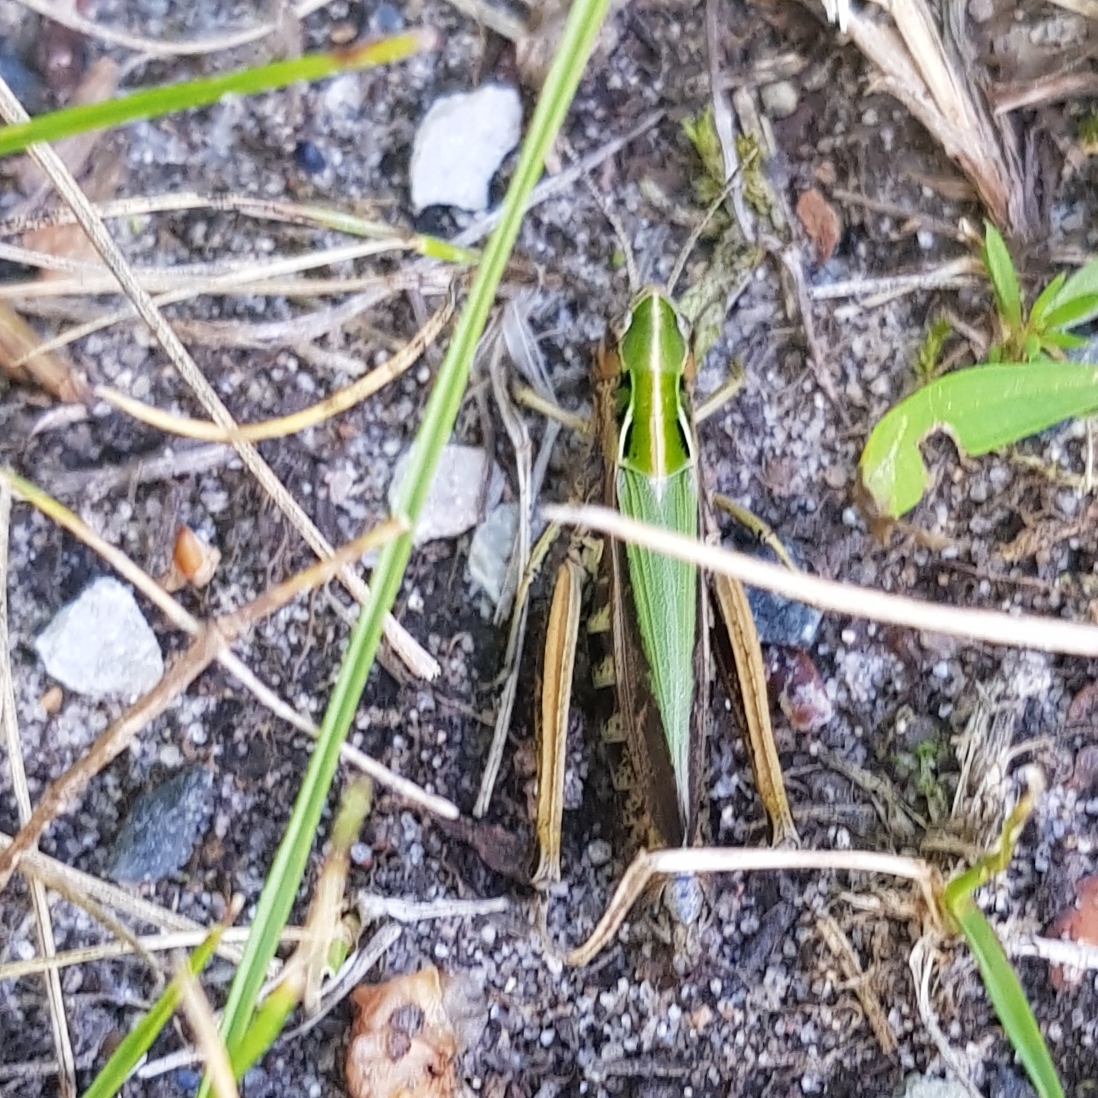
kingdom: Animalia
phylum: Arthropoda
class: Insecta
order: Orthoptera
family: Acrididae
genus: Omocestus
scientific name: Omocestus viridulus
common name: Common green grasshopper
